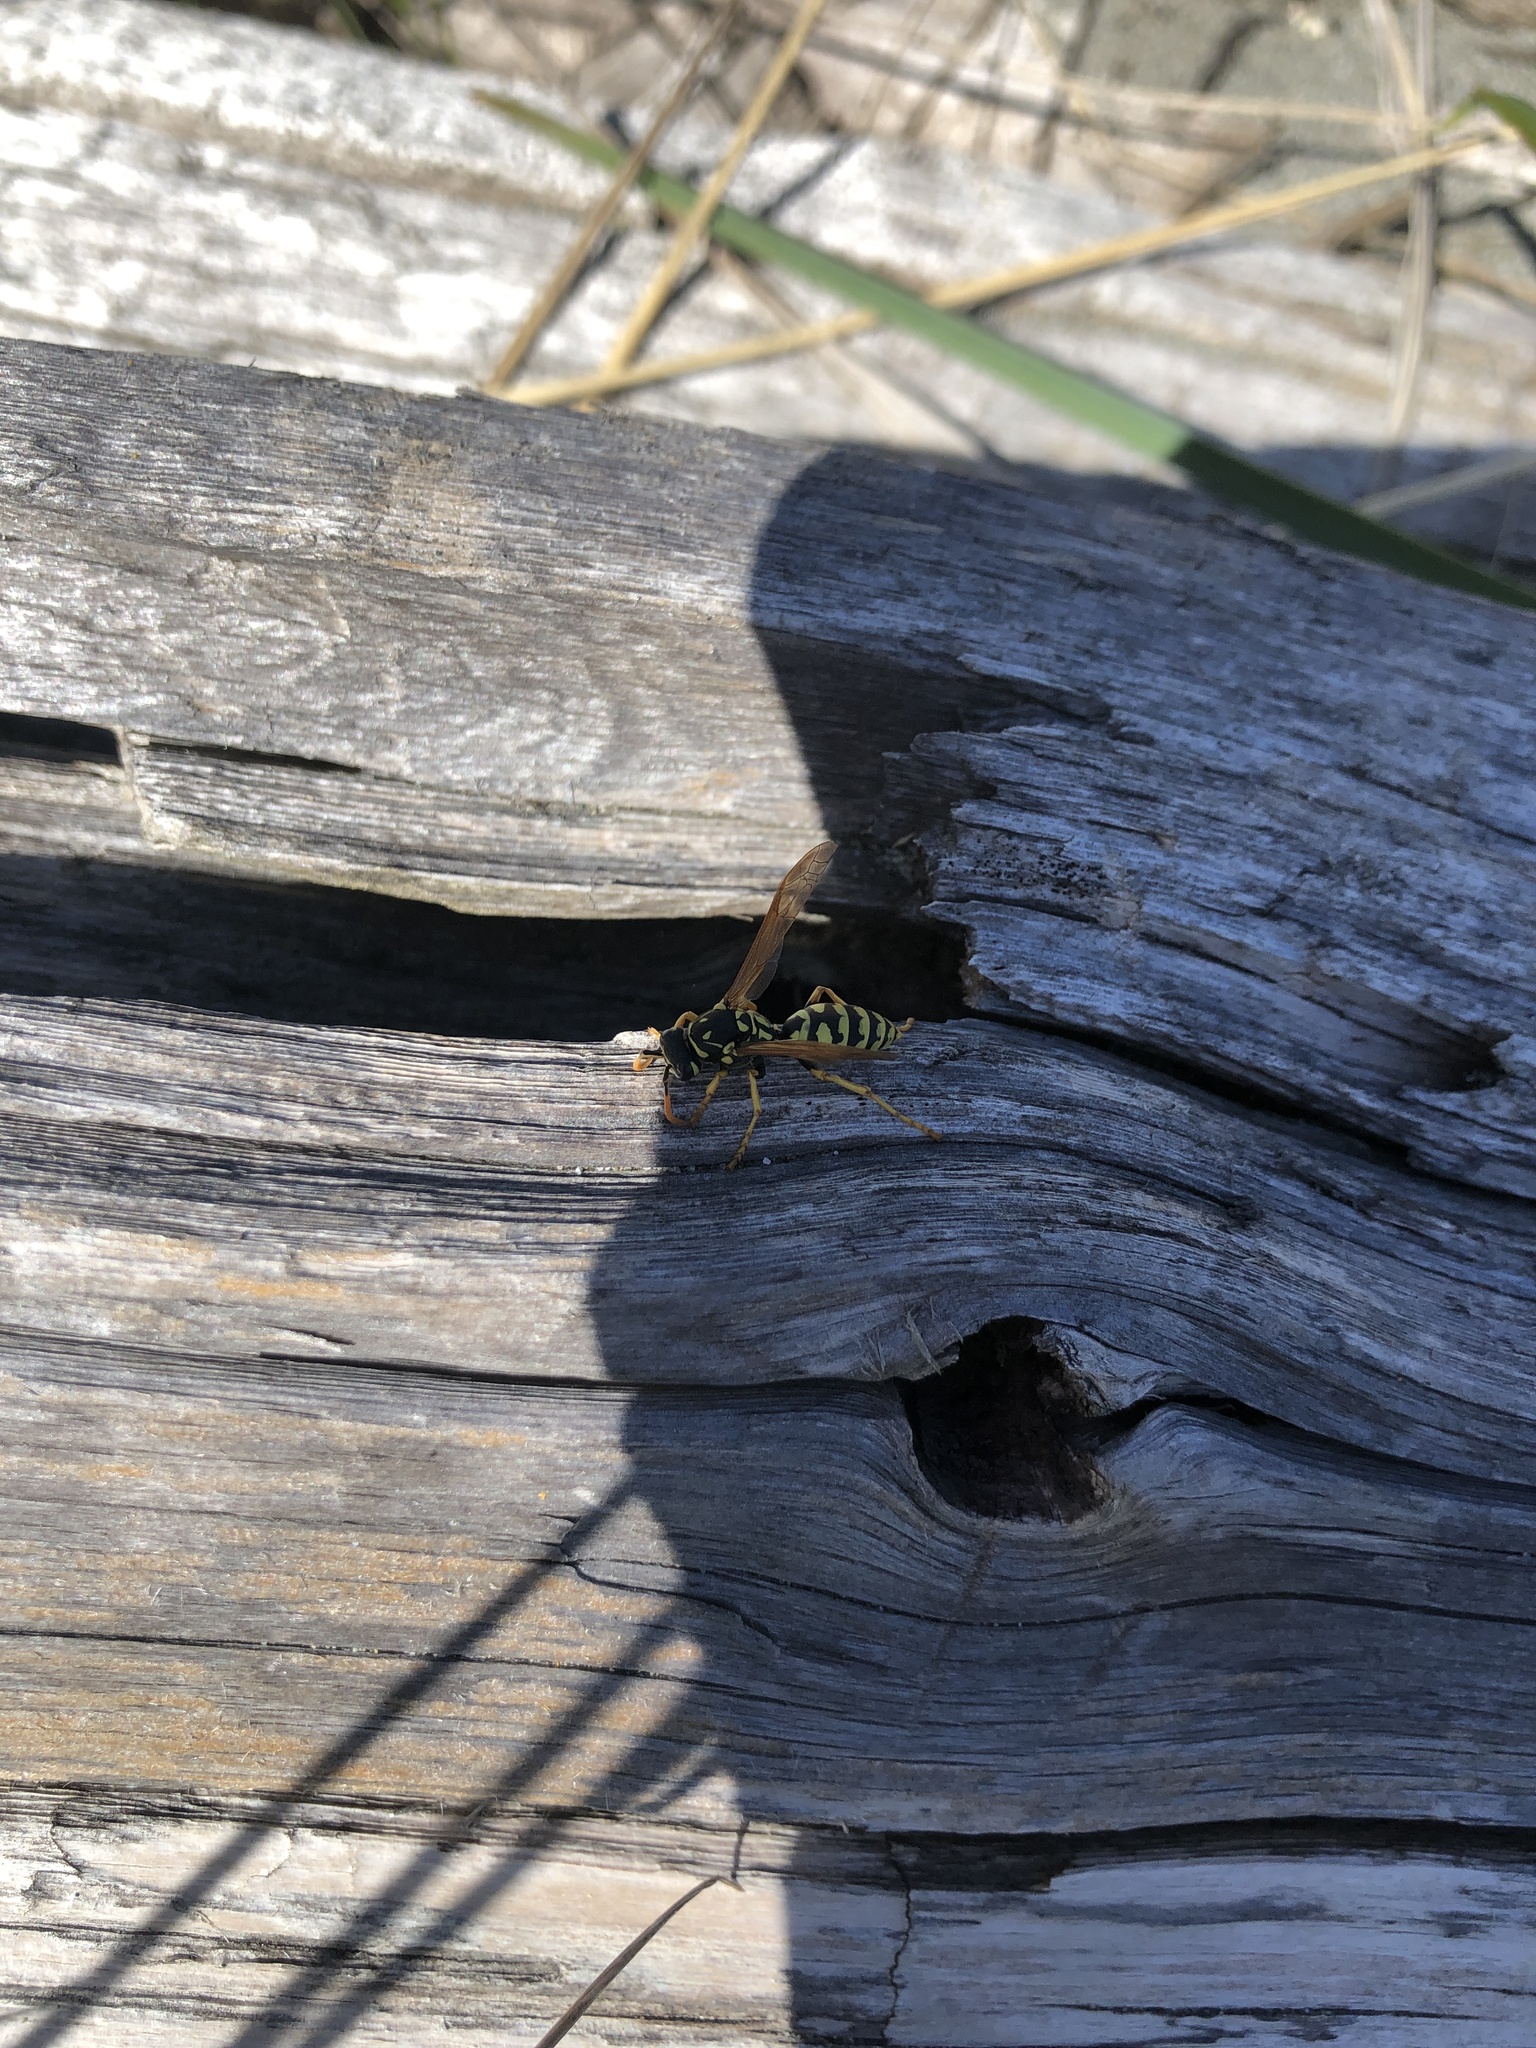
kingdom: Animalia
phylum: Arthropoda
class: Insecta
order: Hymenoptera
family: Eumenidae
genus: Polistes
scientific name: Polistes dominula
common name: Paper wasp
